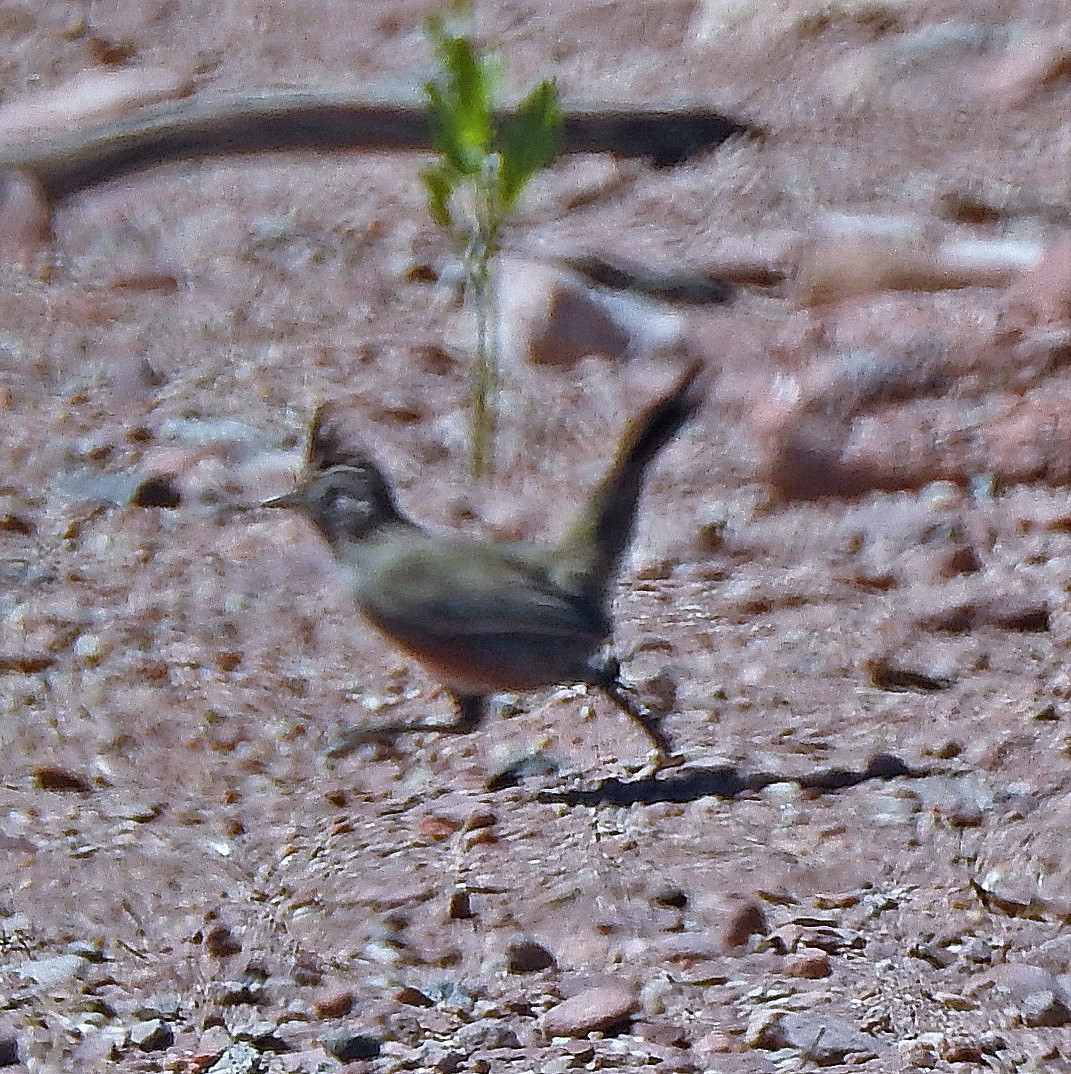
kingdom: Animalia
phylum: Chordata
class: Aves
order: Passeriformes
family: Rhinocryptidae
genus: Rhinocrypta
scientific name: Rhinocrypta lanceolata
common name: Crested gallito
